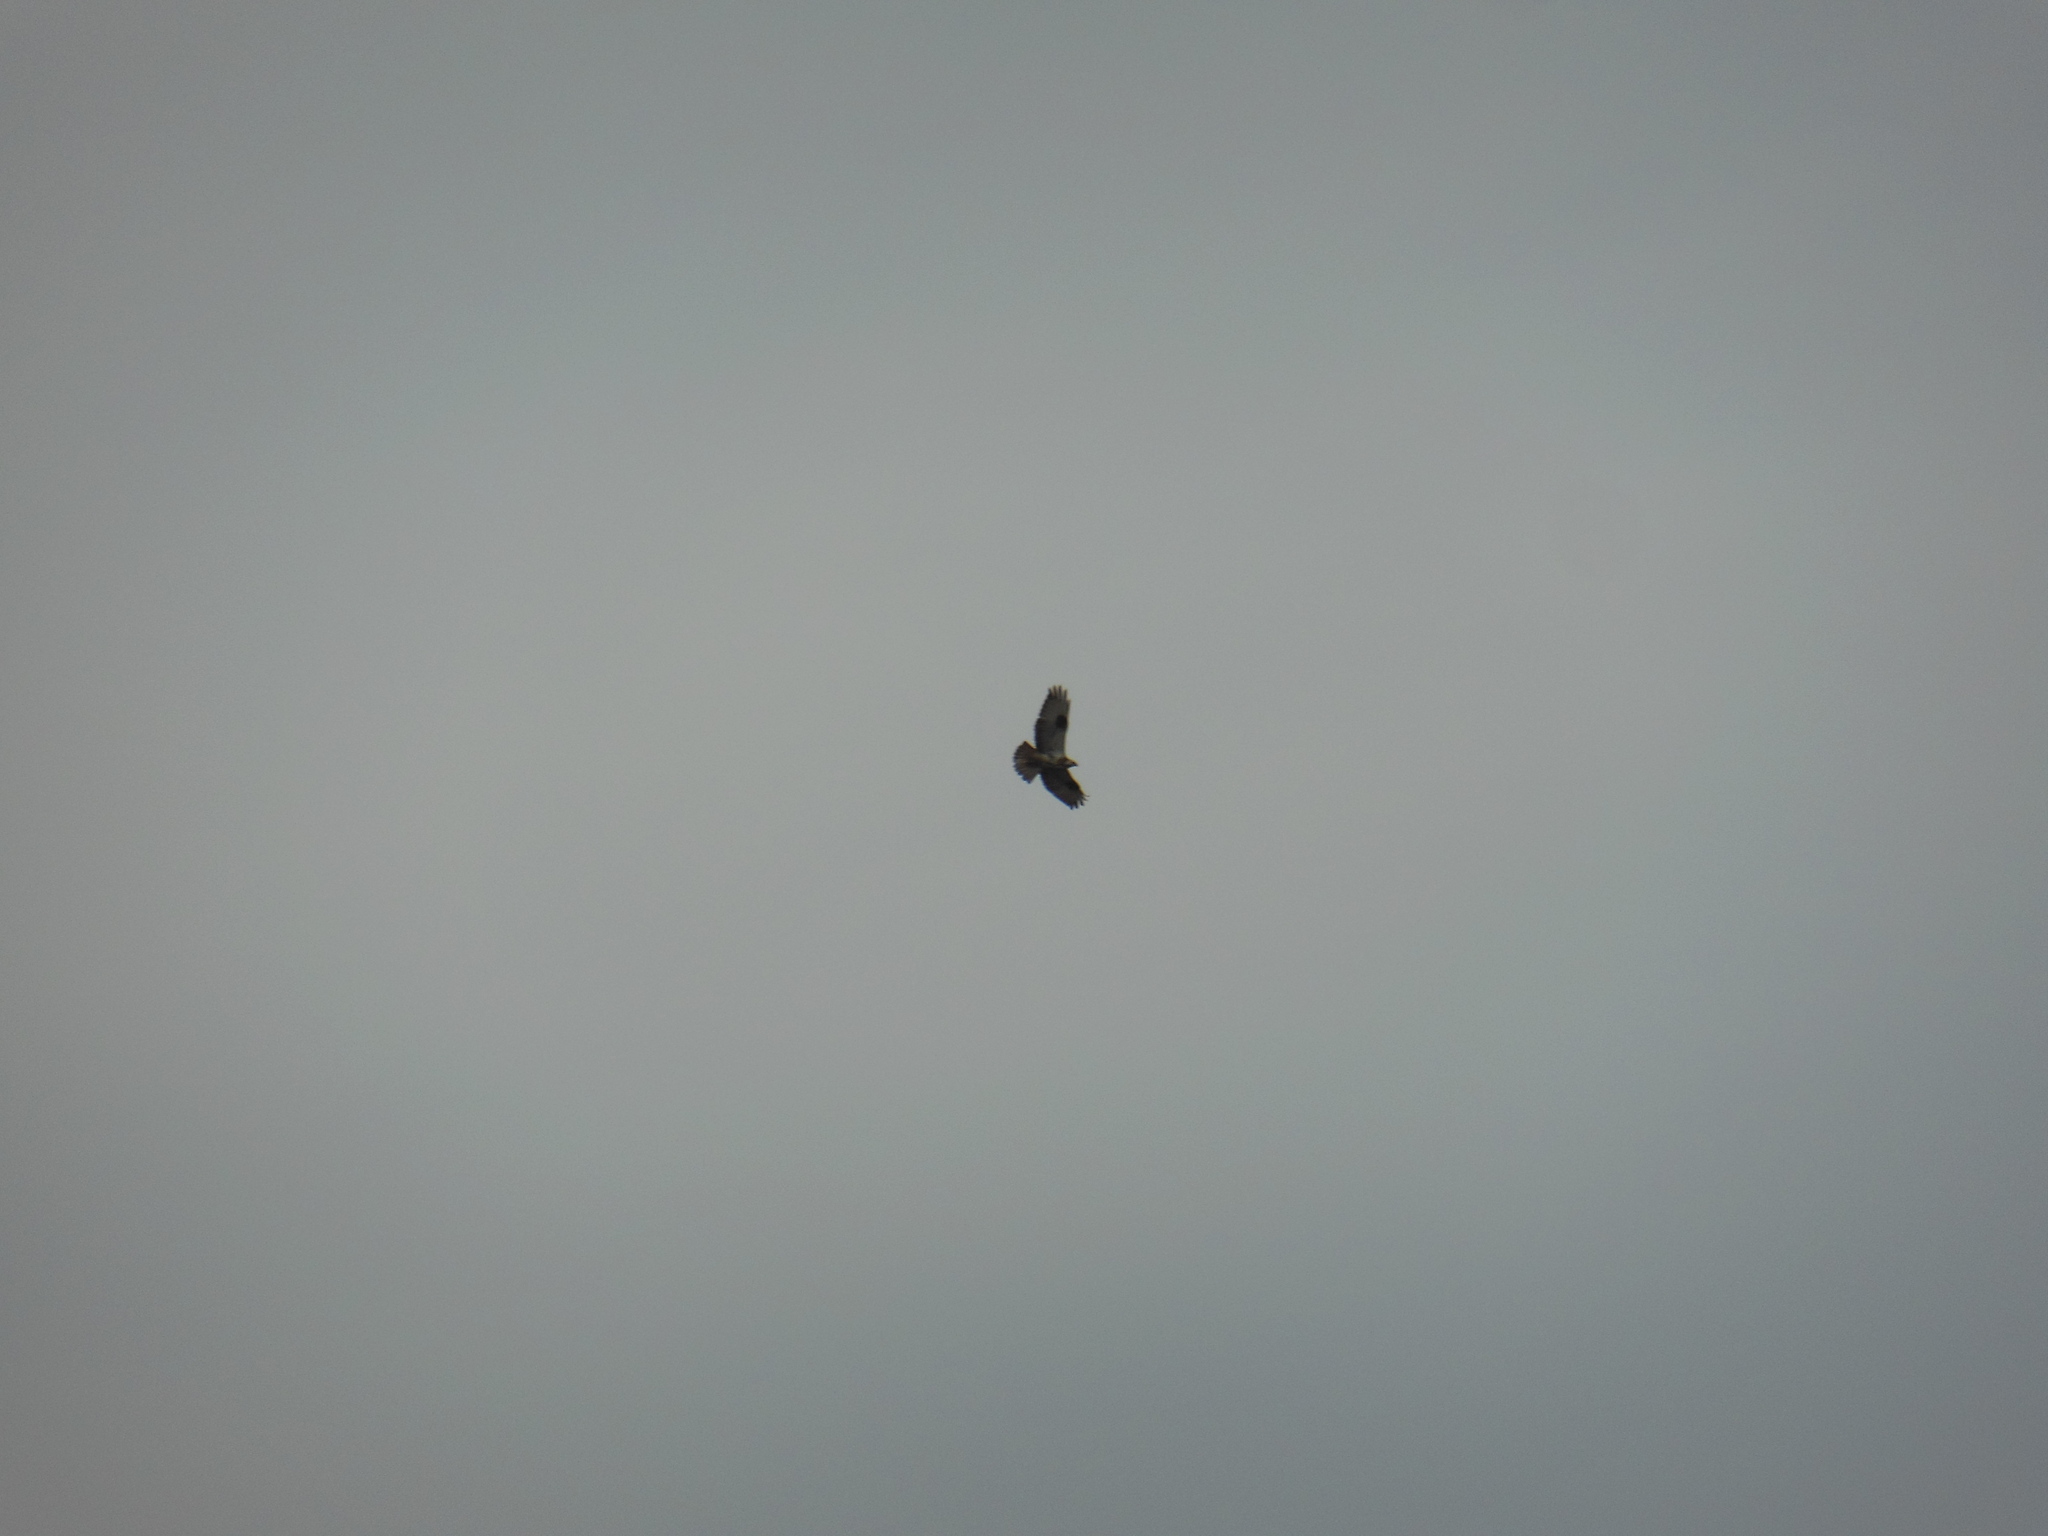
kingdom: Animalia
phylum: Chordata
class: Aves
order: Accipitriformes
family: Accipitridae
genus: Buteo
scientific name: Buteo buteo
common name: Common buzzard
